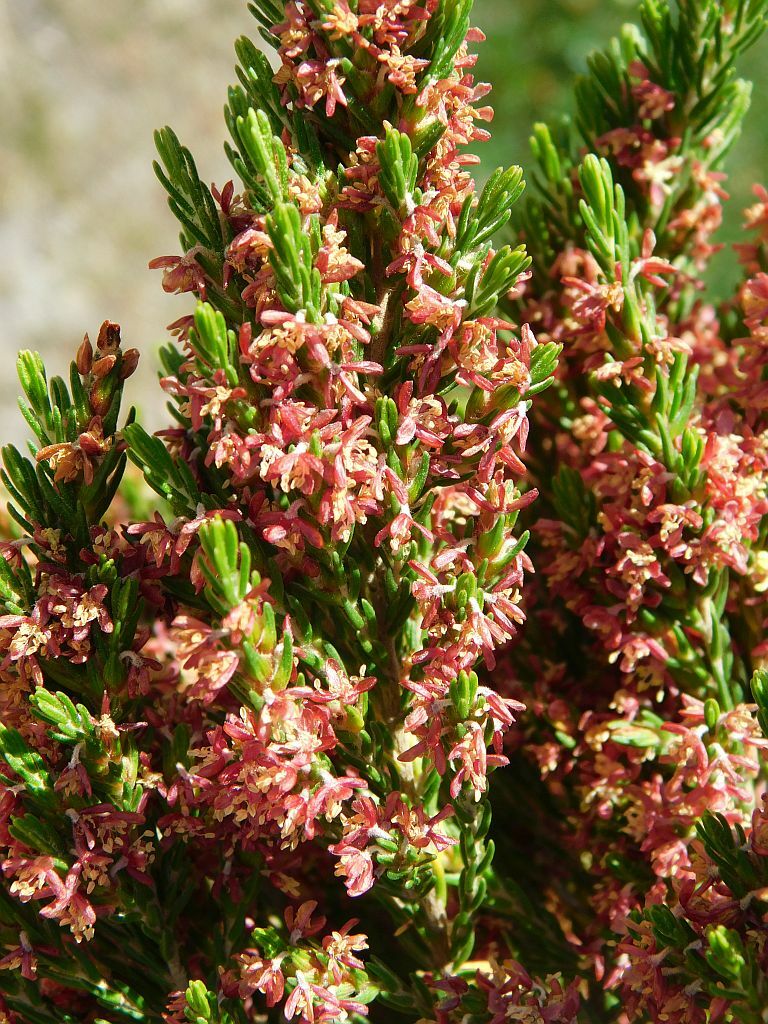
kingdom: Plantae
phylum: Tracheophyta
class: Magnoliopsida
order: Malvales
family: Thymelaeaceae
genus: Passerina
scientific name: Passerina corymbosa
